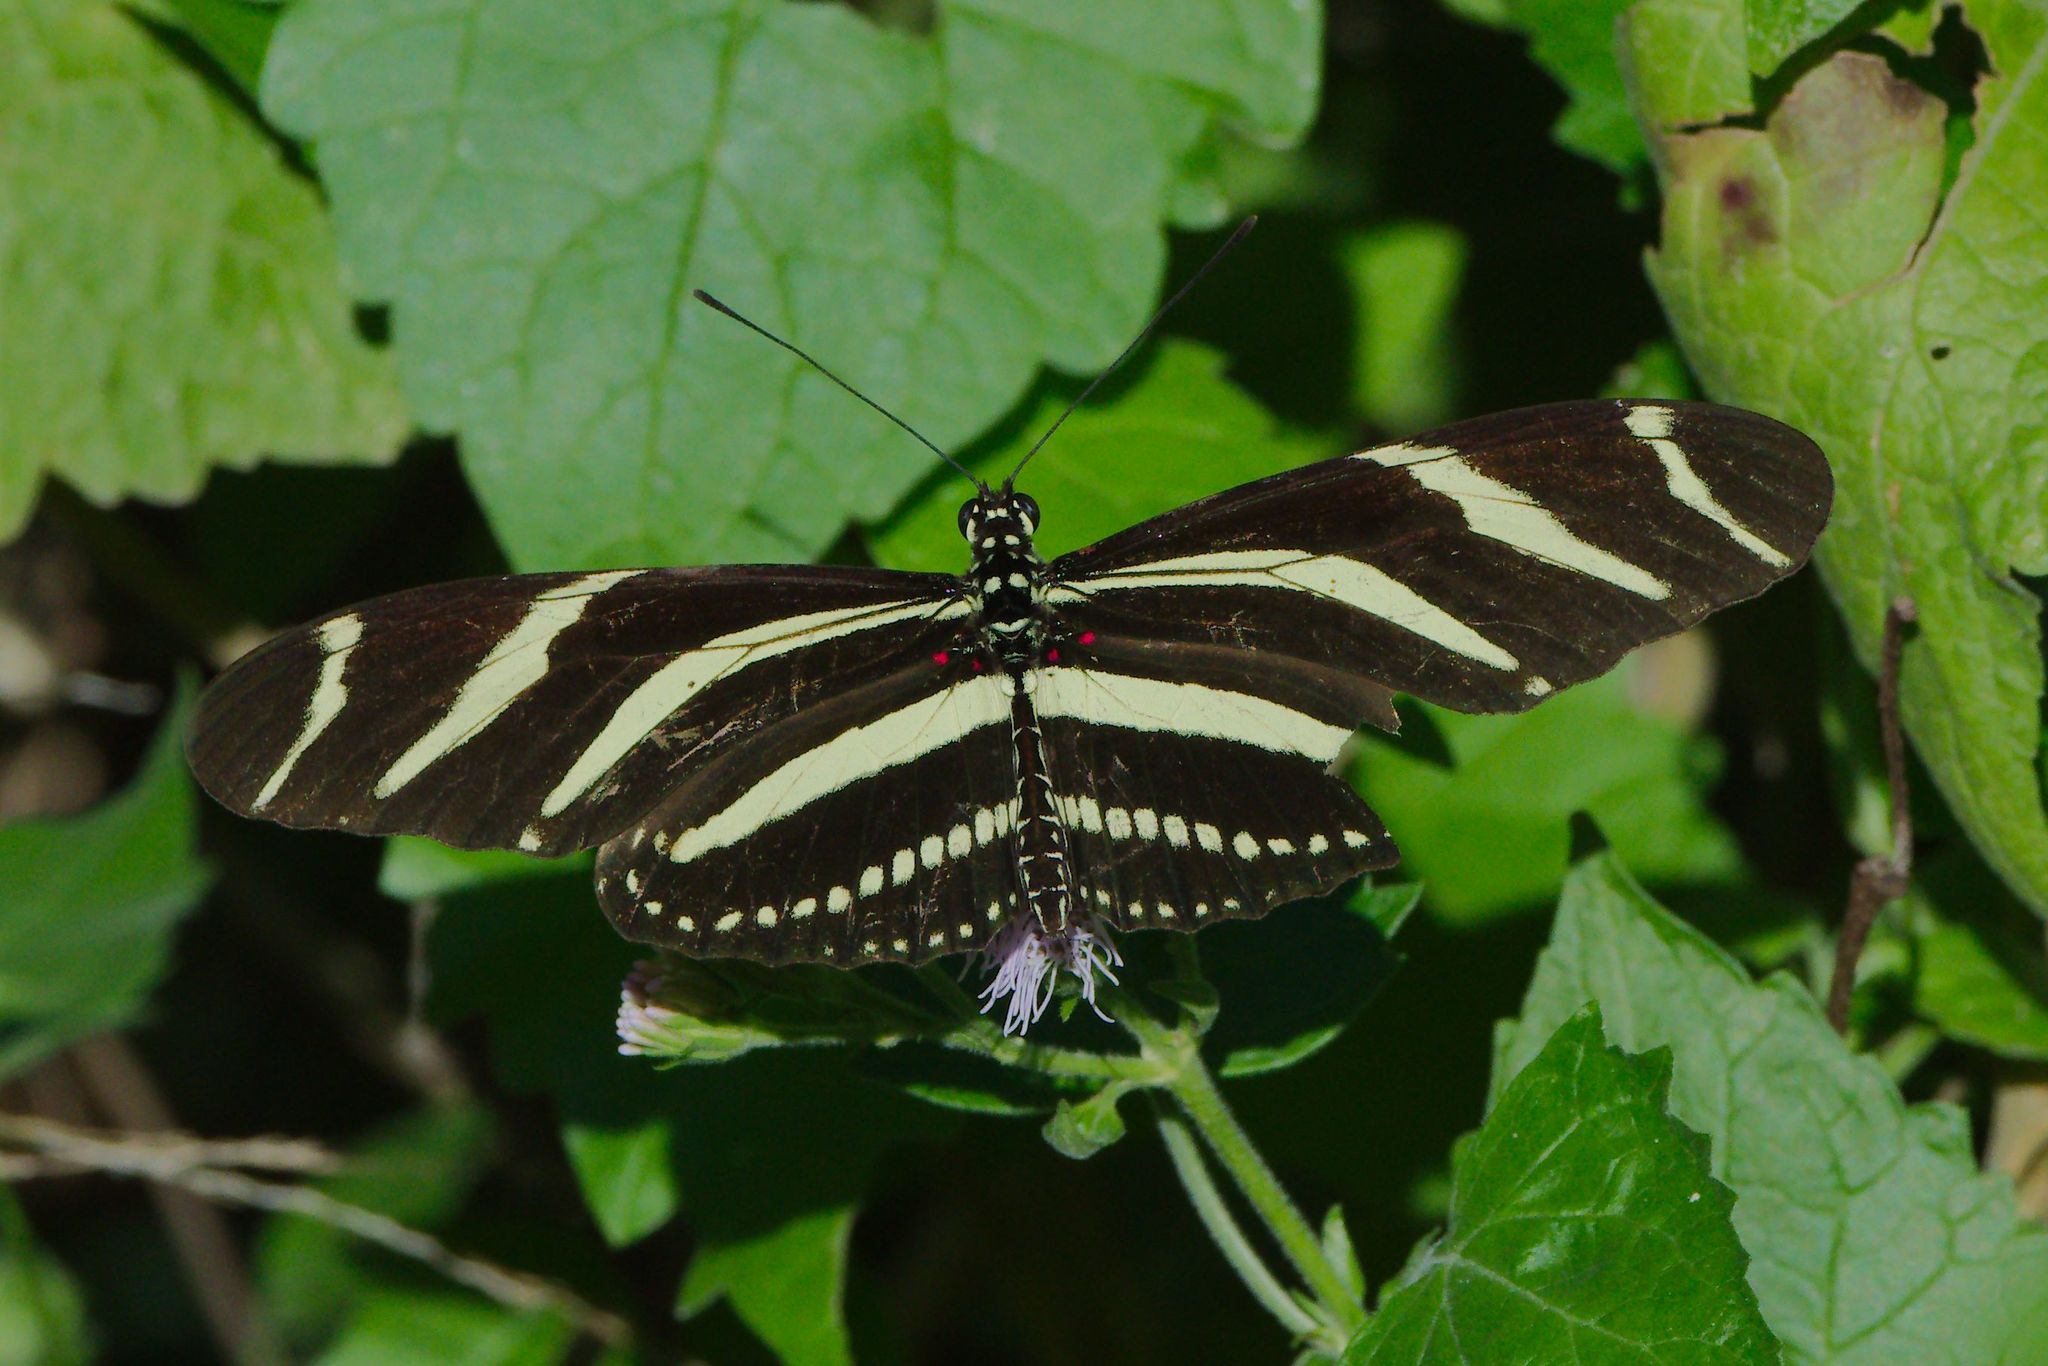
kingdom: Animalia
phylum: Arthropoda
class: Insecta
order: Lepidoptera
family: Nymphalidae
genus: Heliconius
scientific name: Heliconius charithonia
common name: Zebra long wing
